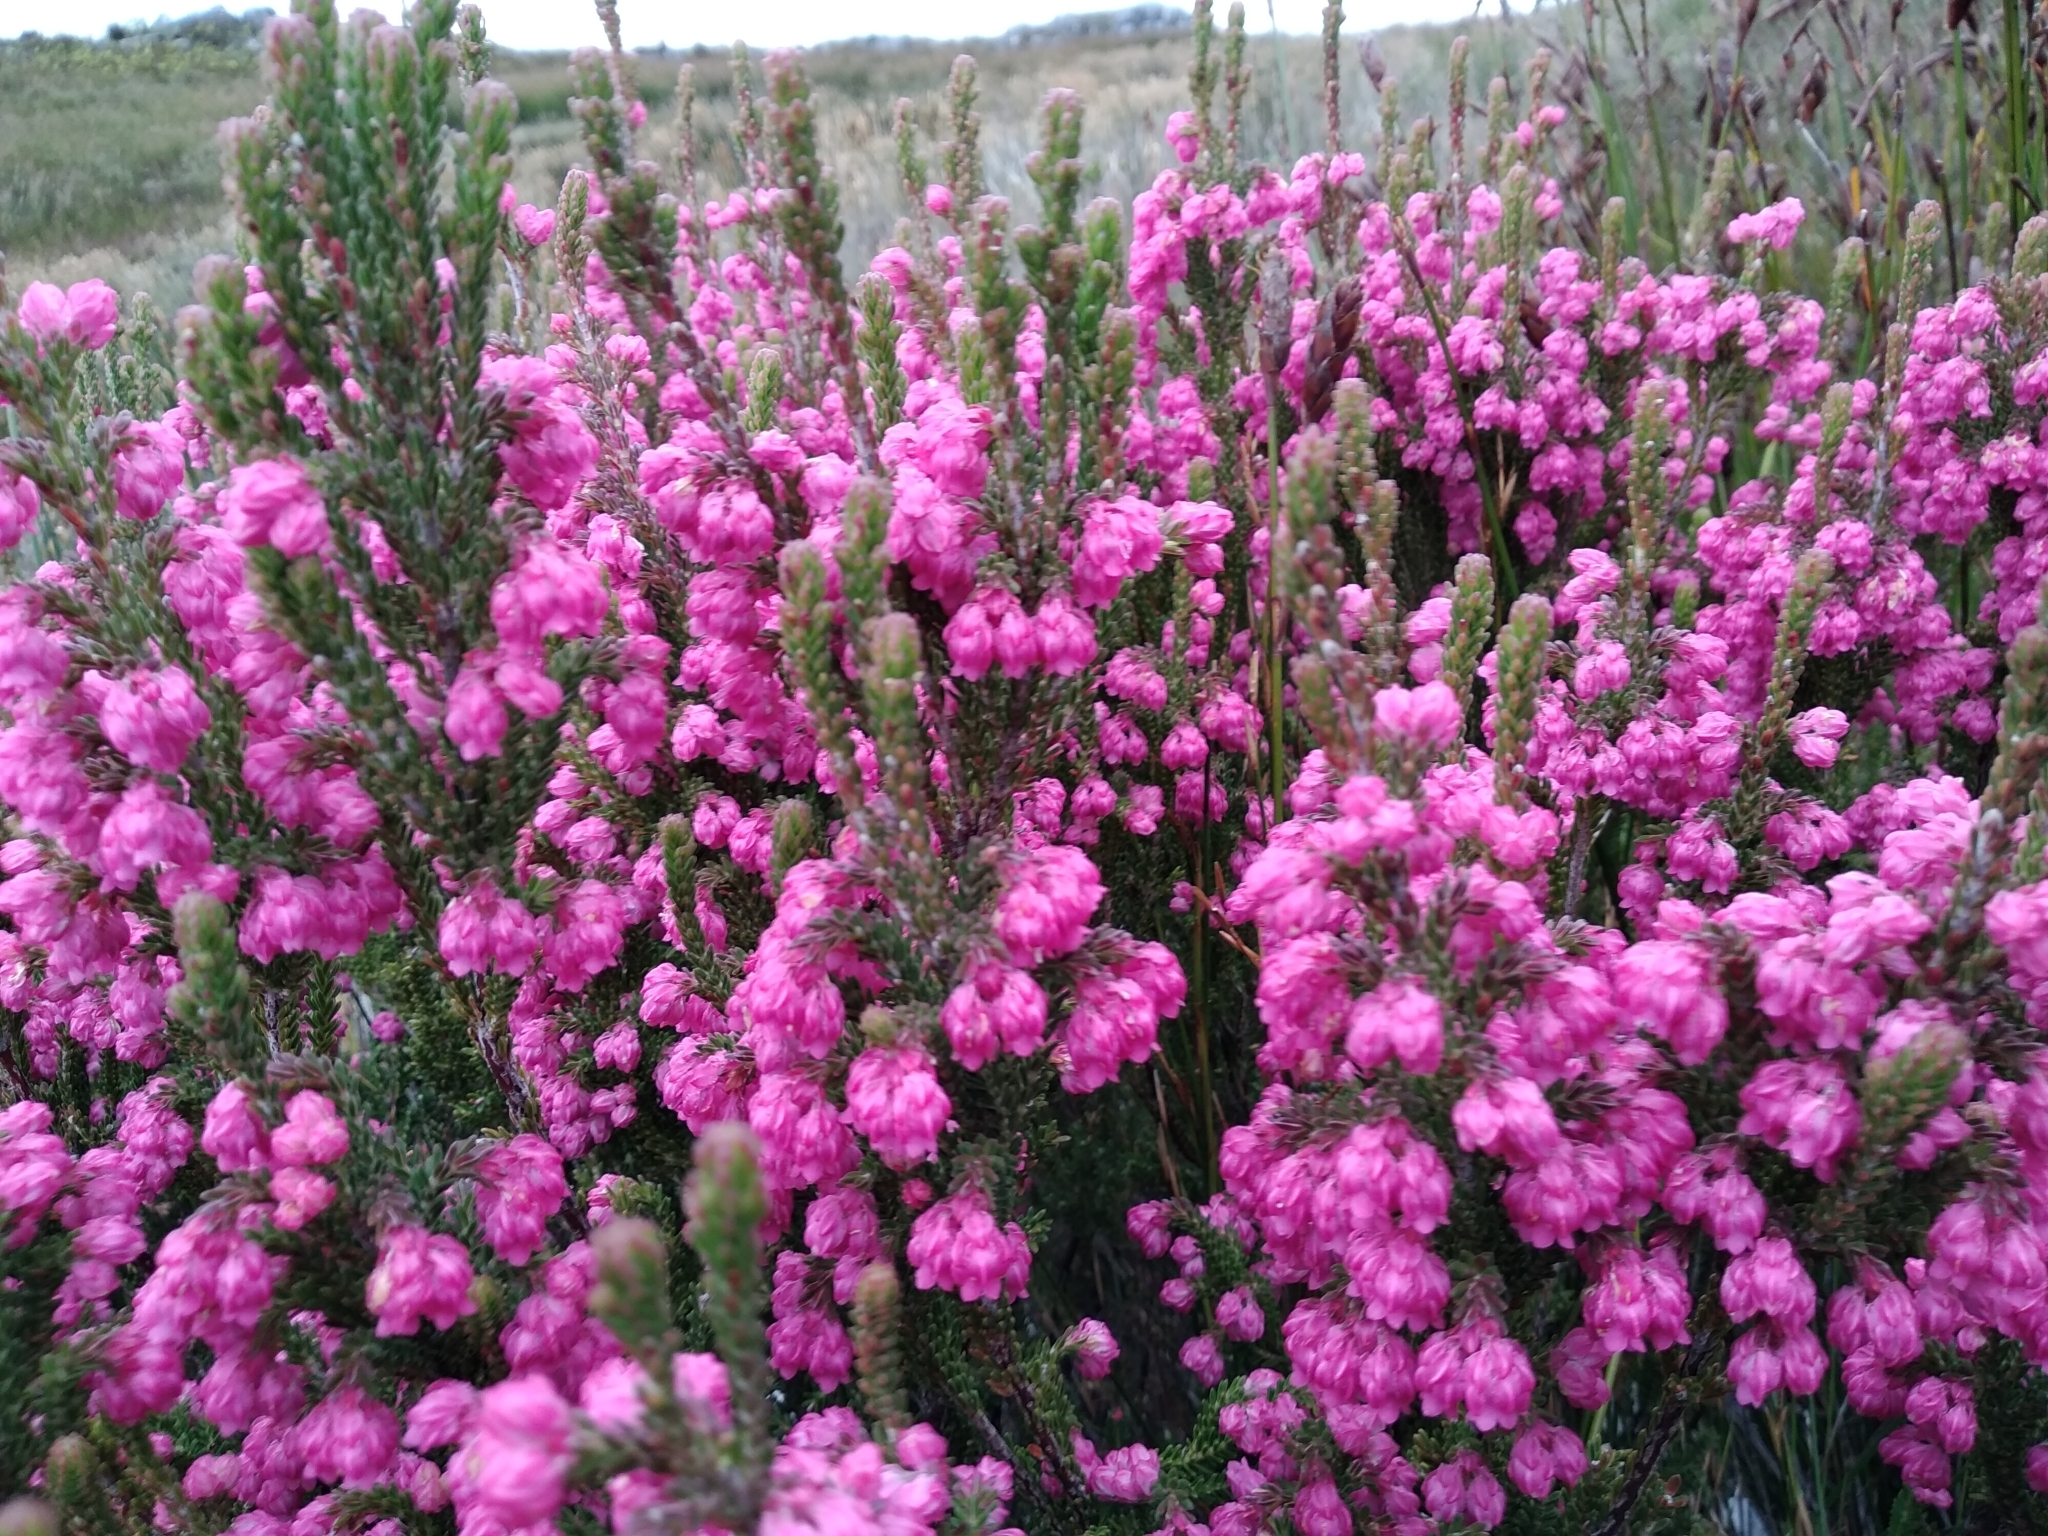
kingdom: Plantae
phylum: Tracheophyta
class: Magnoliopsida
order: Ericales
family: Ericaceae
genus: Erica
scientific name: Erica tegulifolia
